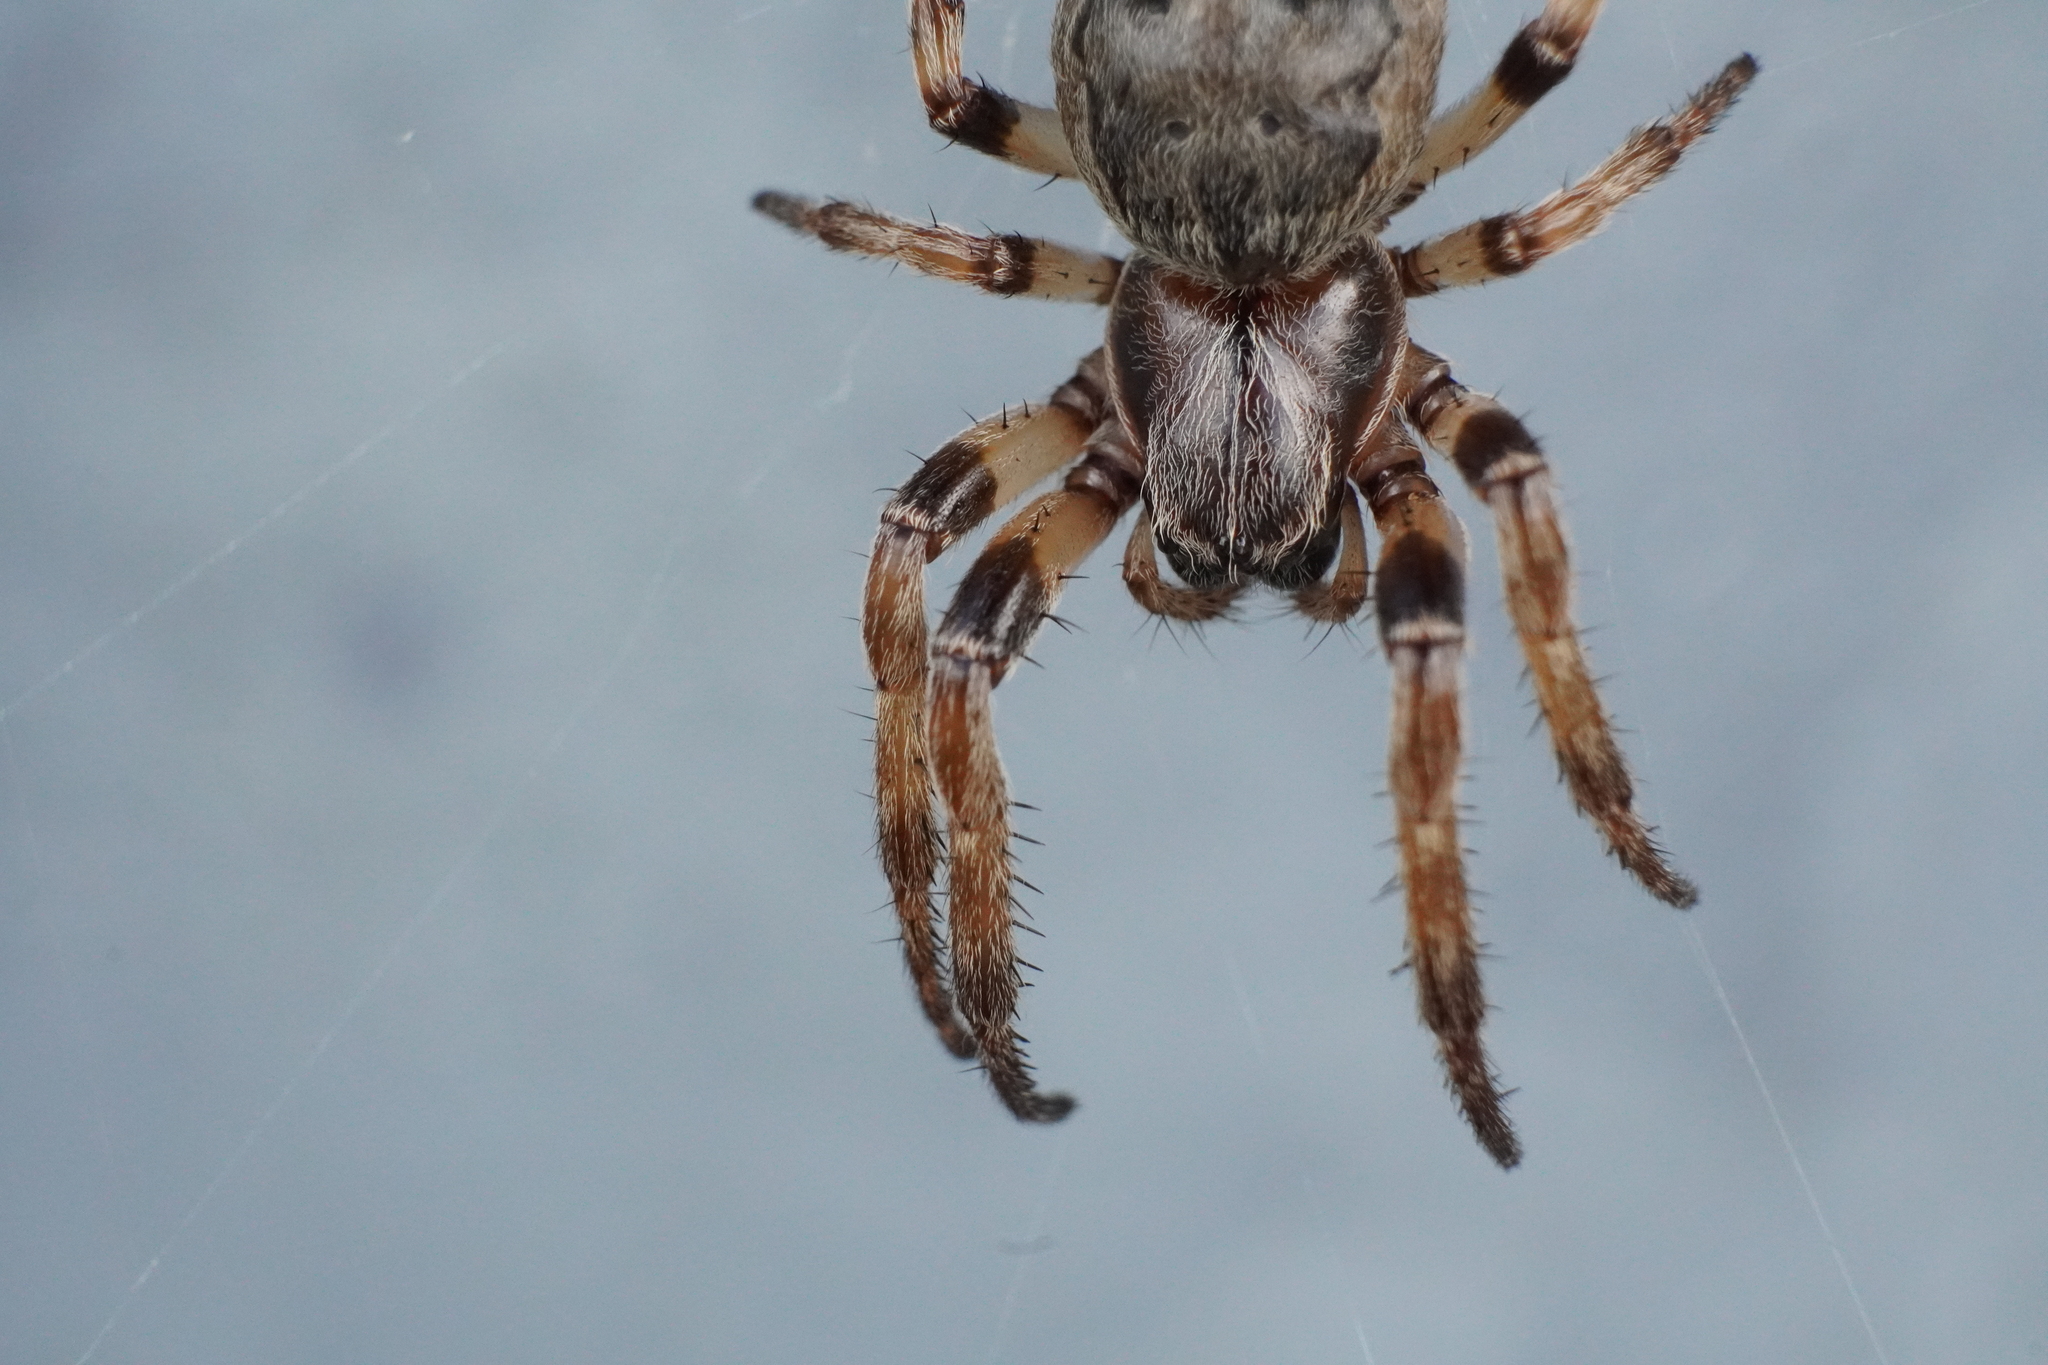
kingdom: Animalia
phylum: Arthropoda
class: Arachnida
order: Araneae
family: Araneidae
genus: Larinioides
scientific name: Larinioides cornutus
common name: Furrow orbweaver
